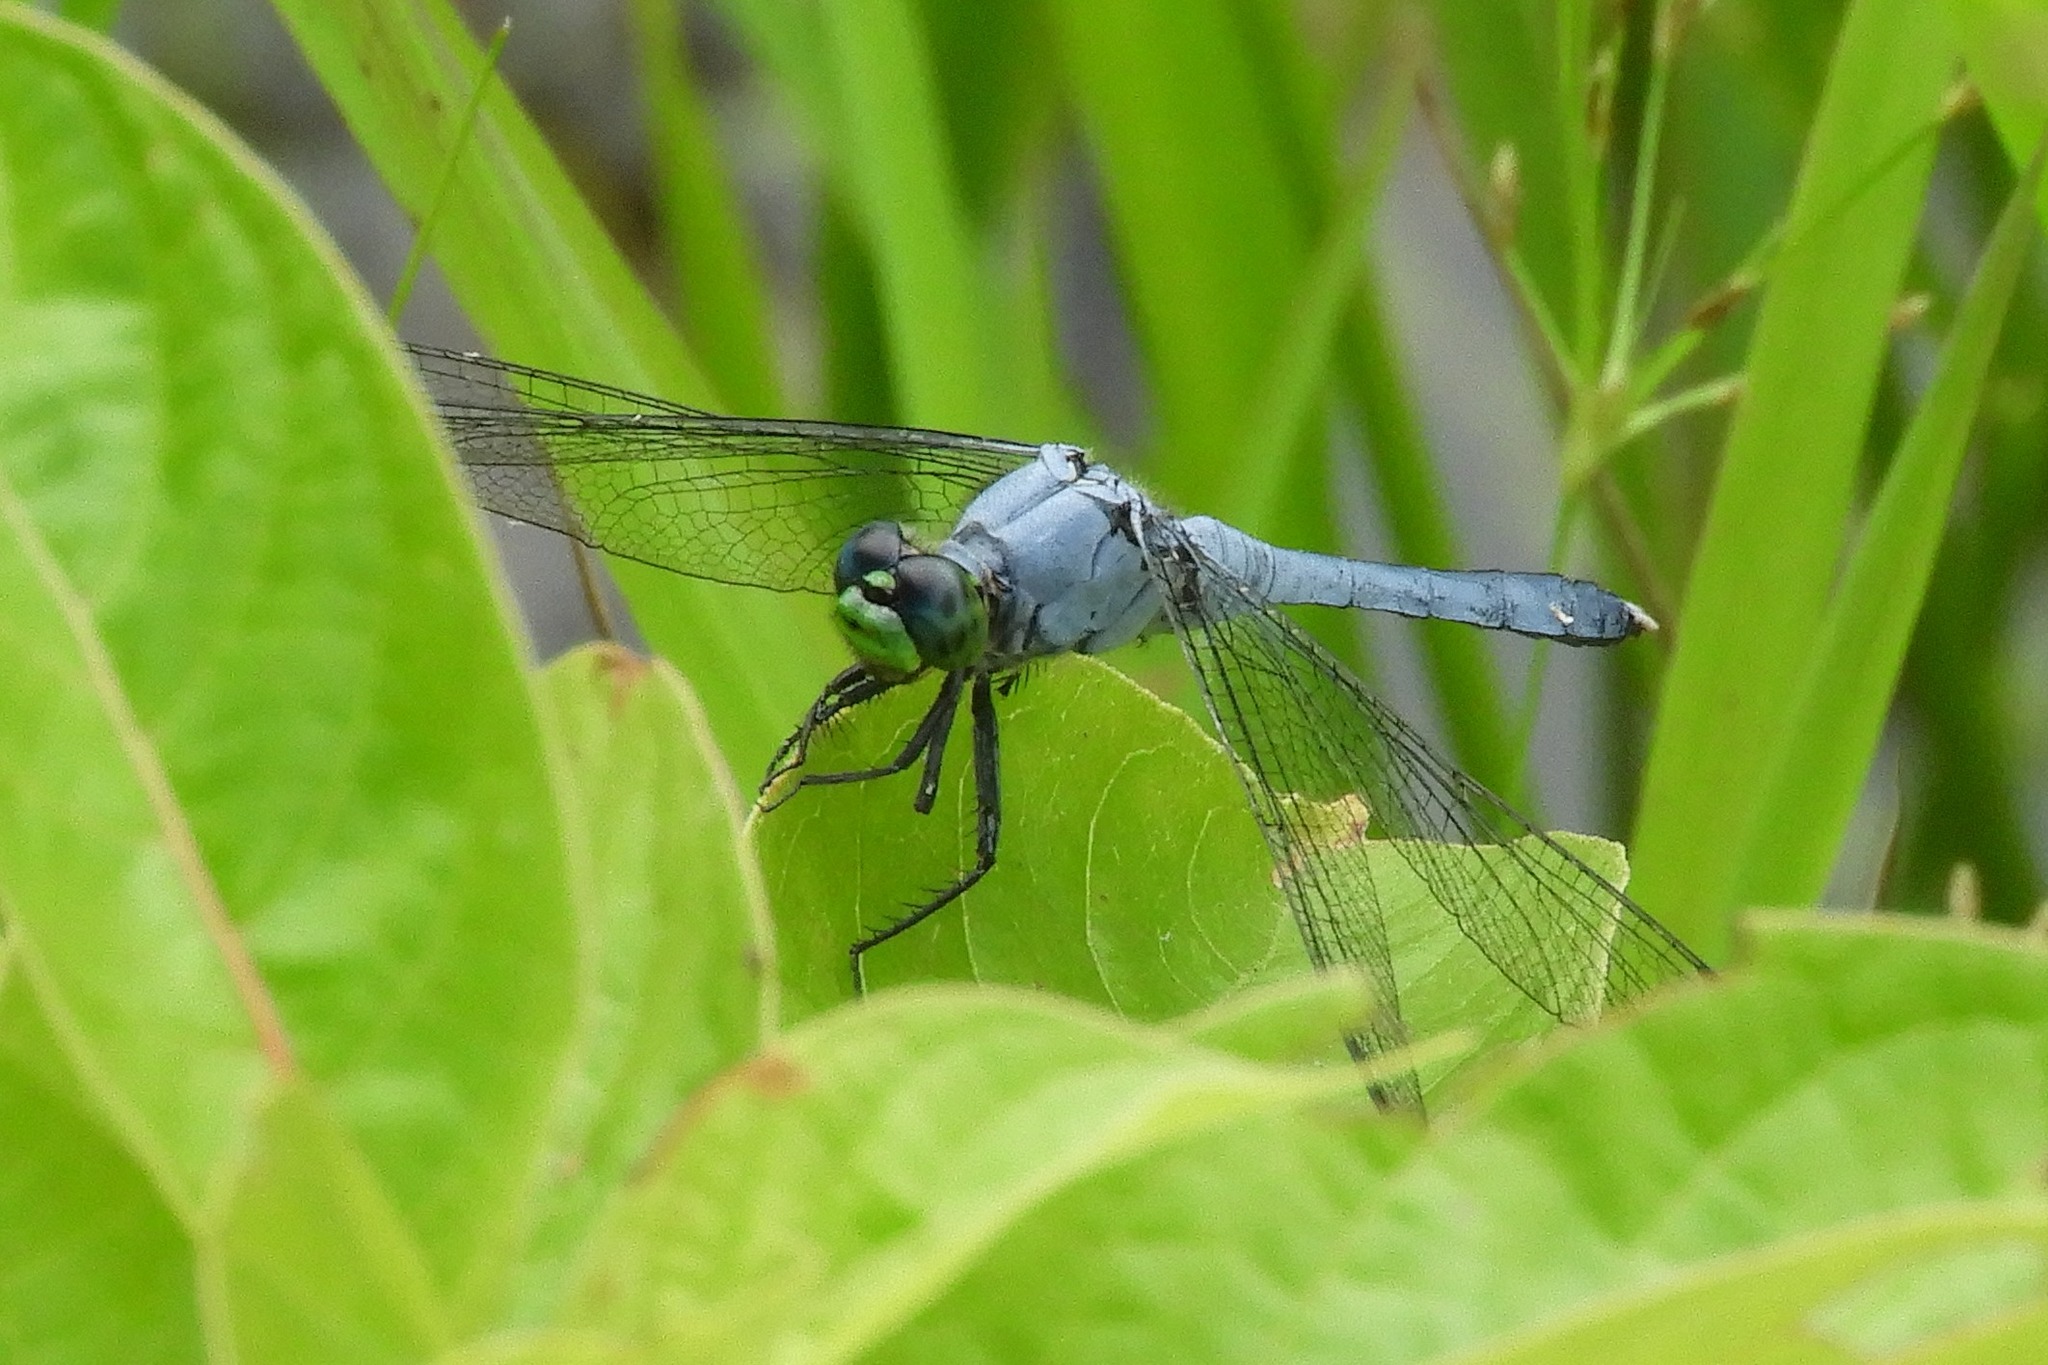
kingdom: Animalia
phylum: Arthropoda
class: Insecta
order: Odonata
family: Libellulidae
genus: Erythemis
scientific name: Erythemis simplicicollis
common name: Eastern pondhawk
